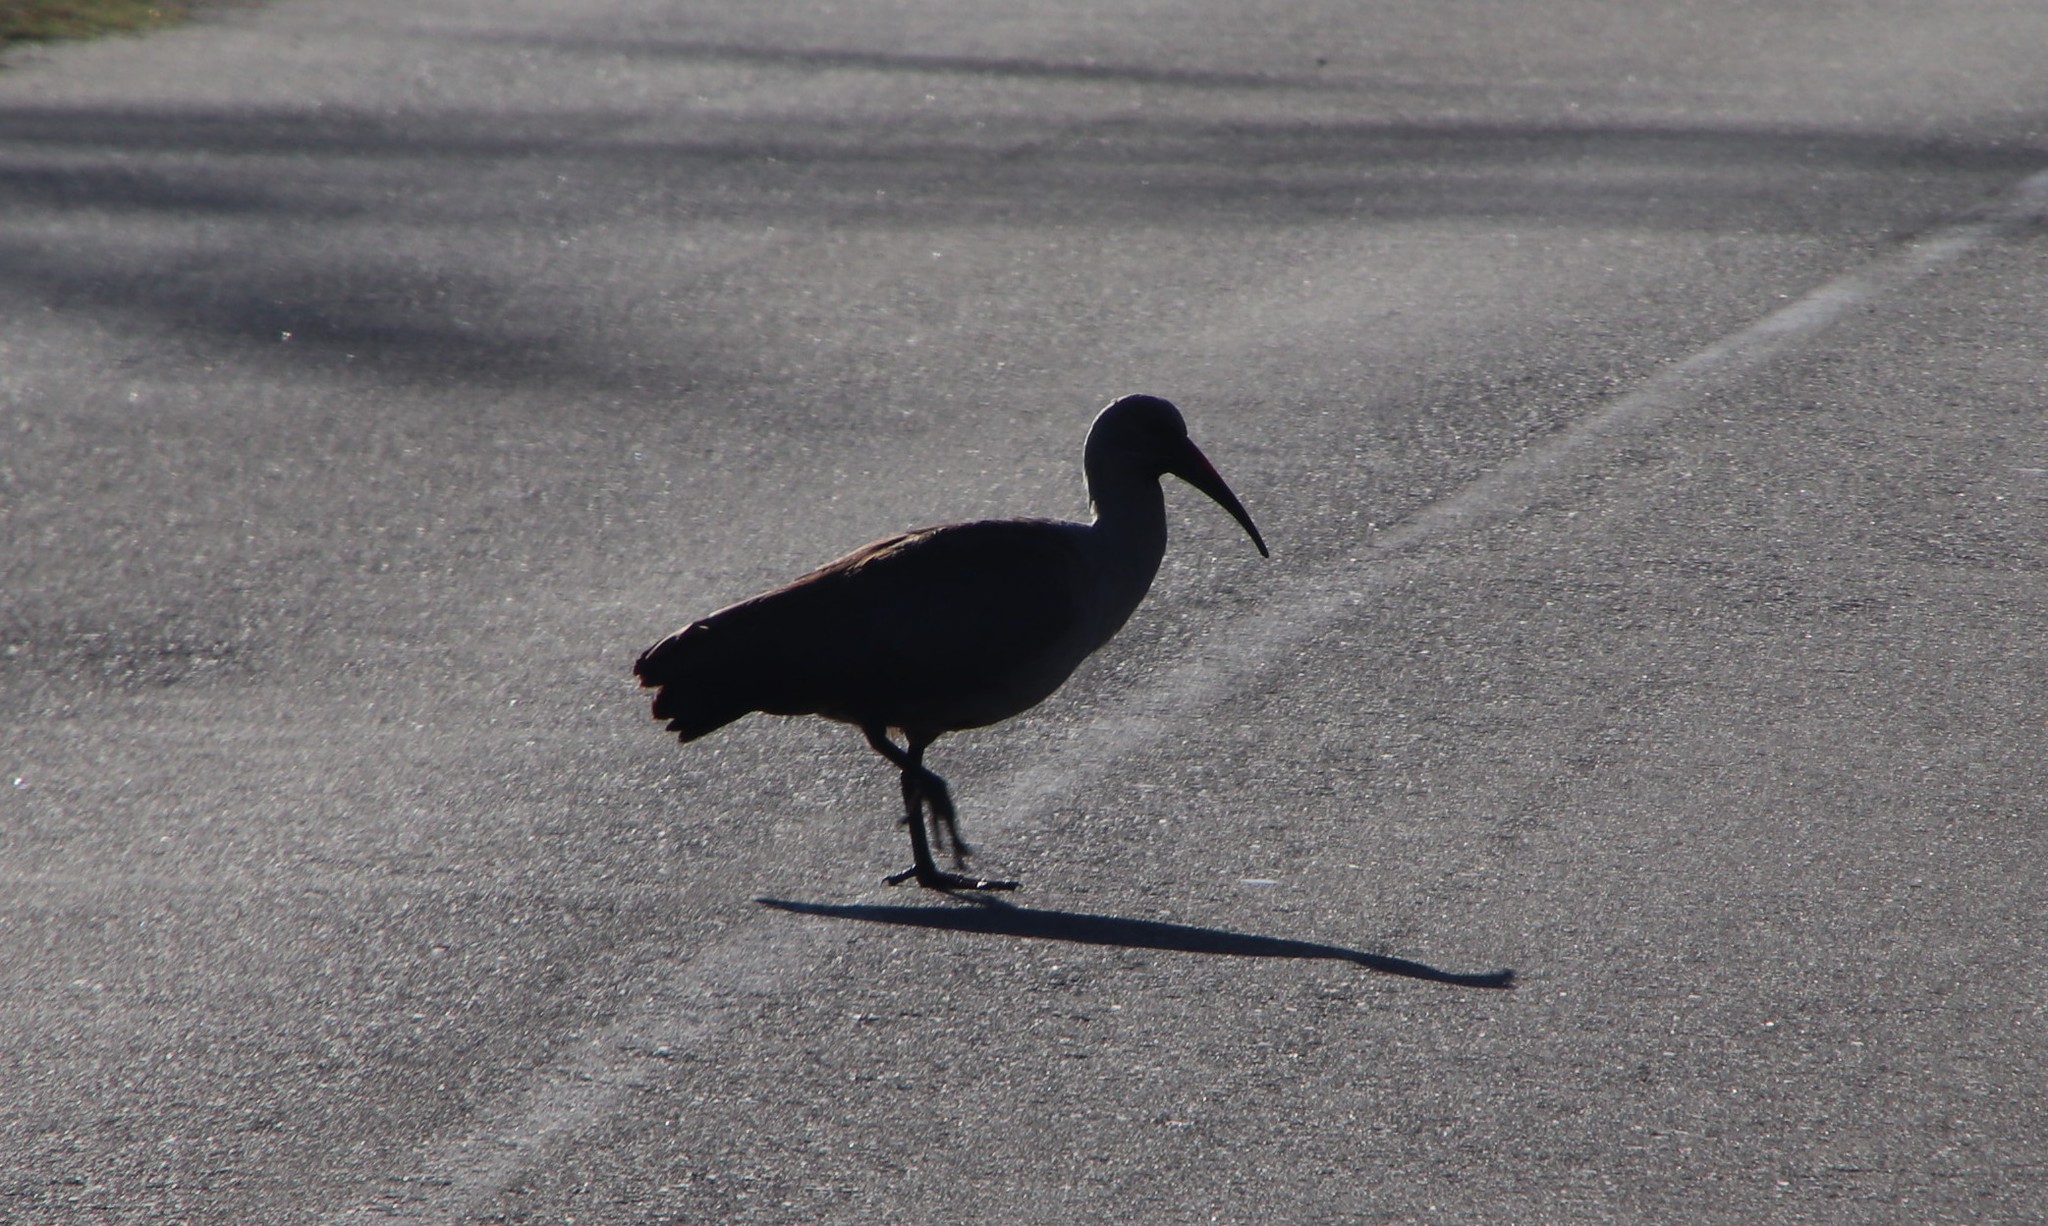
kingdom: Animalia
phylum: Chordata
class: Aves
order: Pelecaniformes
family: Threskiornithidae
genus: Bostrychia
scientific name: Bostrychia hagedash
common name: Hadada ibis
